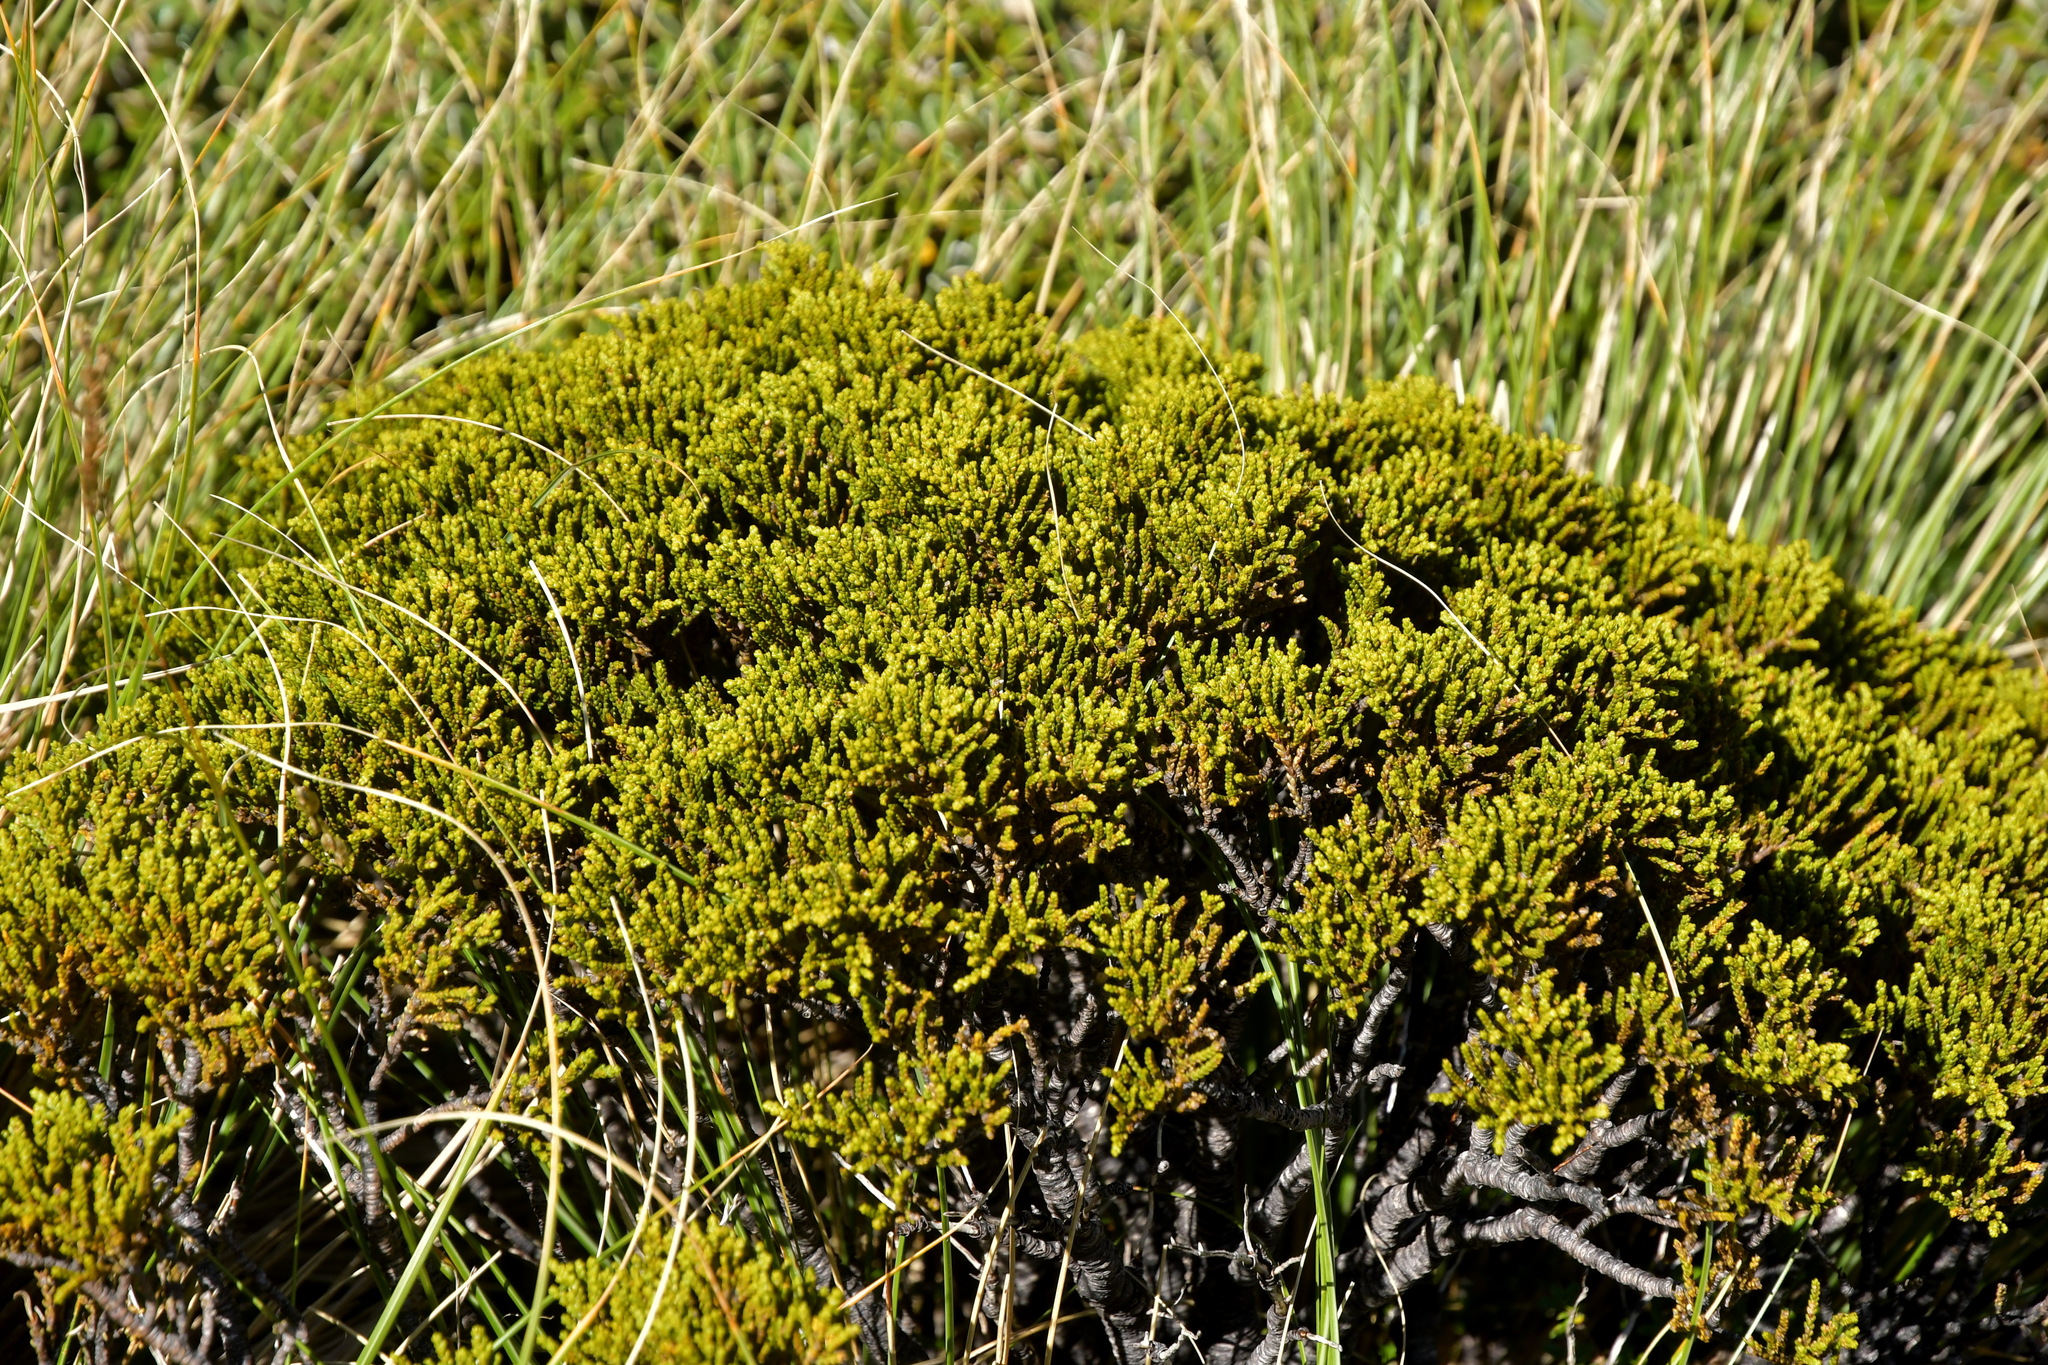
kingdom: Plantae
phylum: Tracheophyta
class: Magnoliopsida
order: Lamiales
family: Plantaginaceae
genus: Veronica
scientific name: Veronica tetragona
